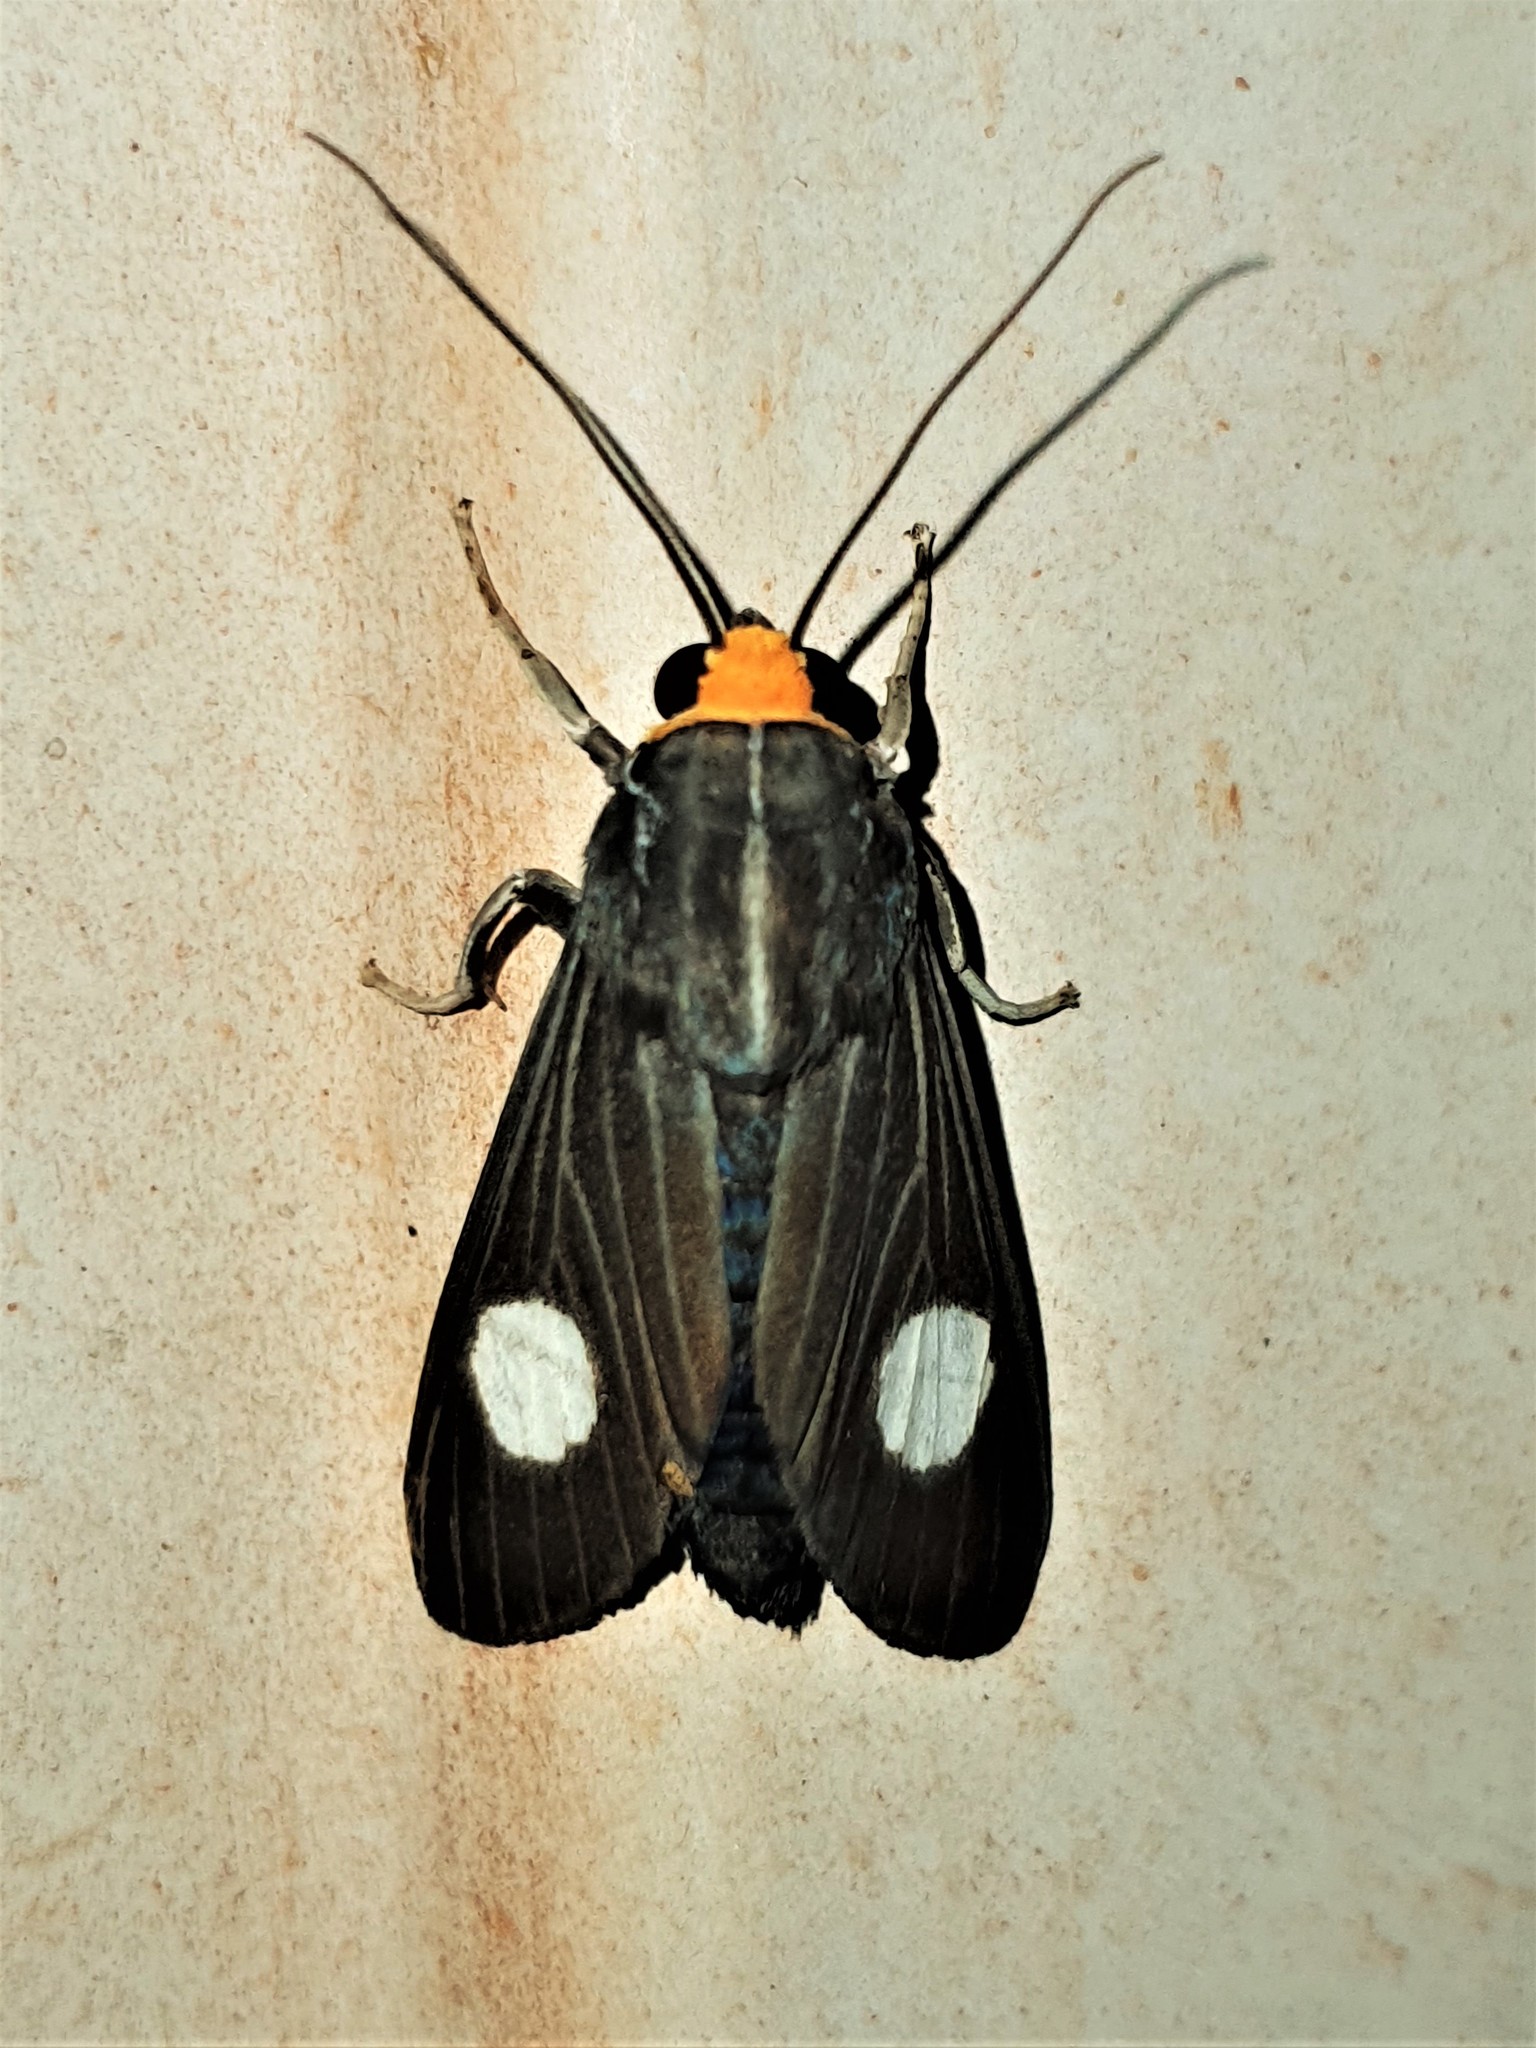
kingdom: Animalia
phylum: Arthropoda
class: Insecta
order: Lepidoptera
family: Erebidae
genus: Rhipha
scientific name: Rhipha albiplaga
